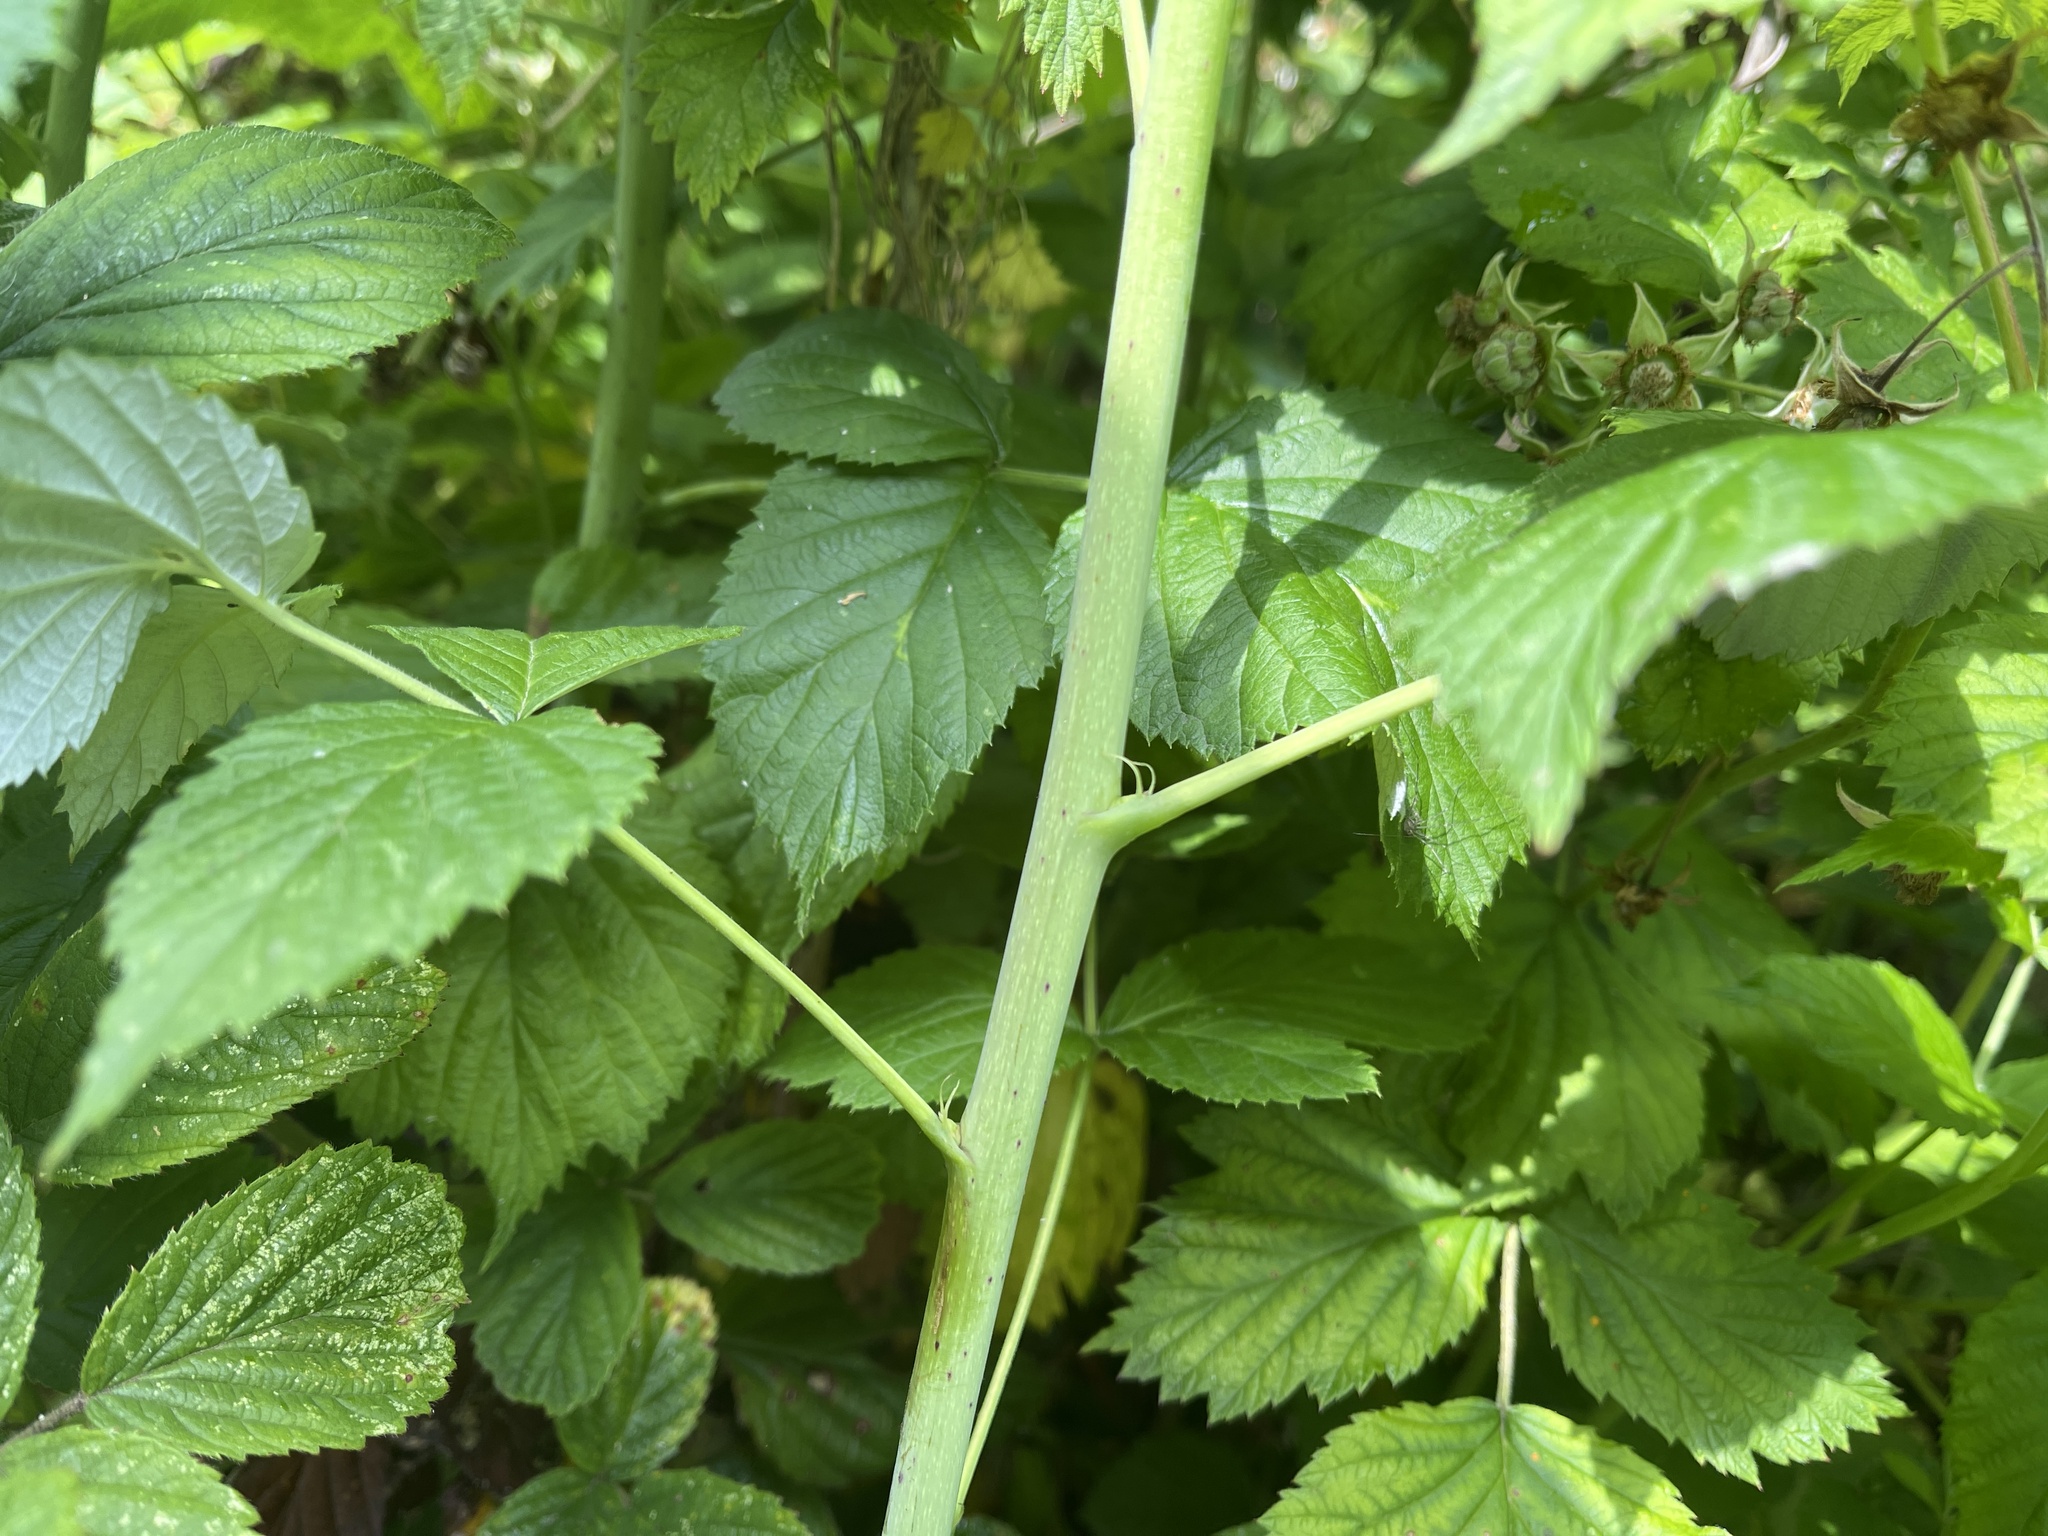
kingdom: Plantae
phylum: Tracheophyta
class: Magnoliopsida
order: Rosales
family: Rosaceae
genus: Rubus
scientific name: Rubus idaeus
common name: Raspberry
